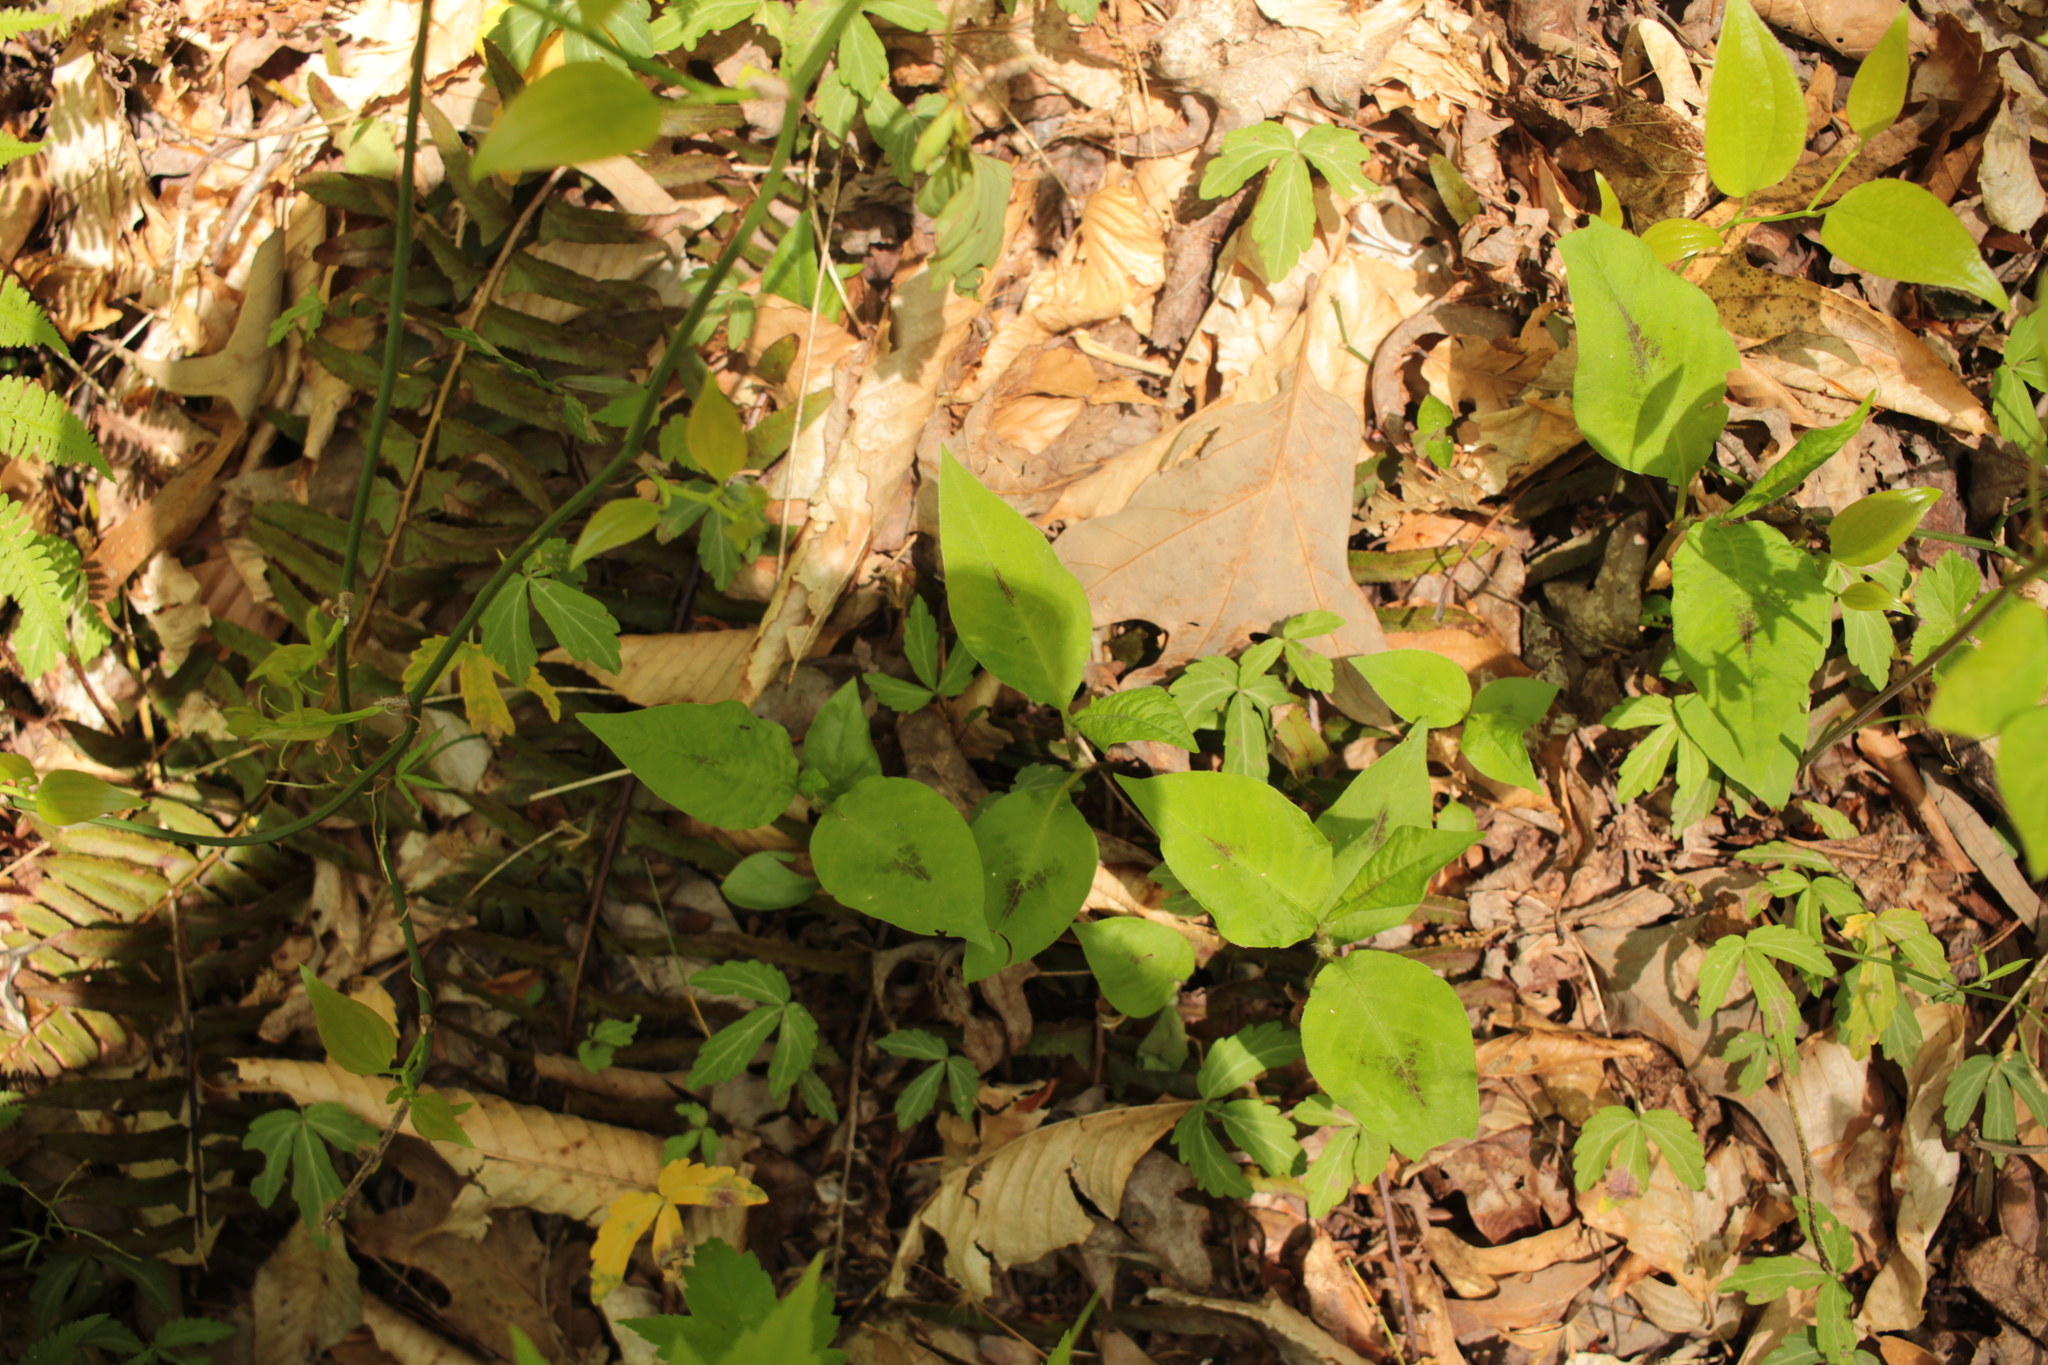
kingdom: Plantae
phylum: Tracheophyta
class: Magnoliopsida
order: Caryophyllales
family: Polygonaceae
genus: Persicaria
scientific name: Persicaria virginiana
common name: Jumpseed
